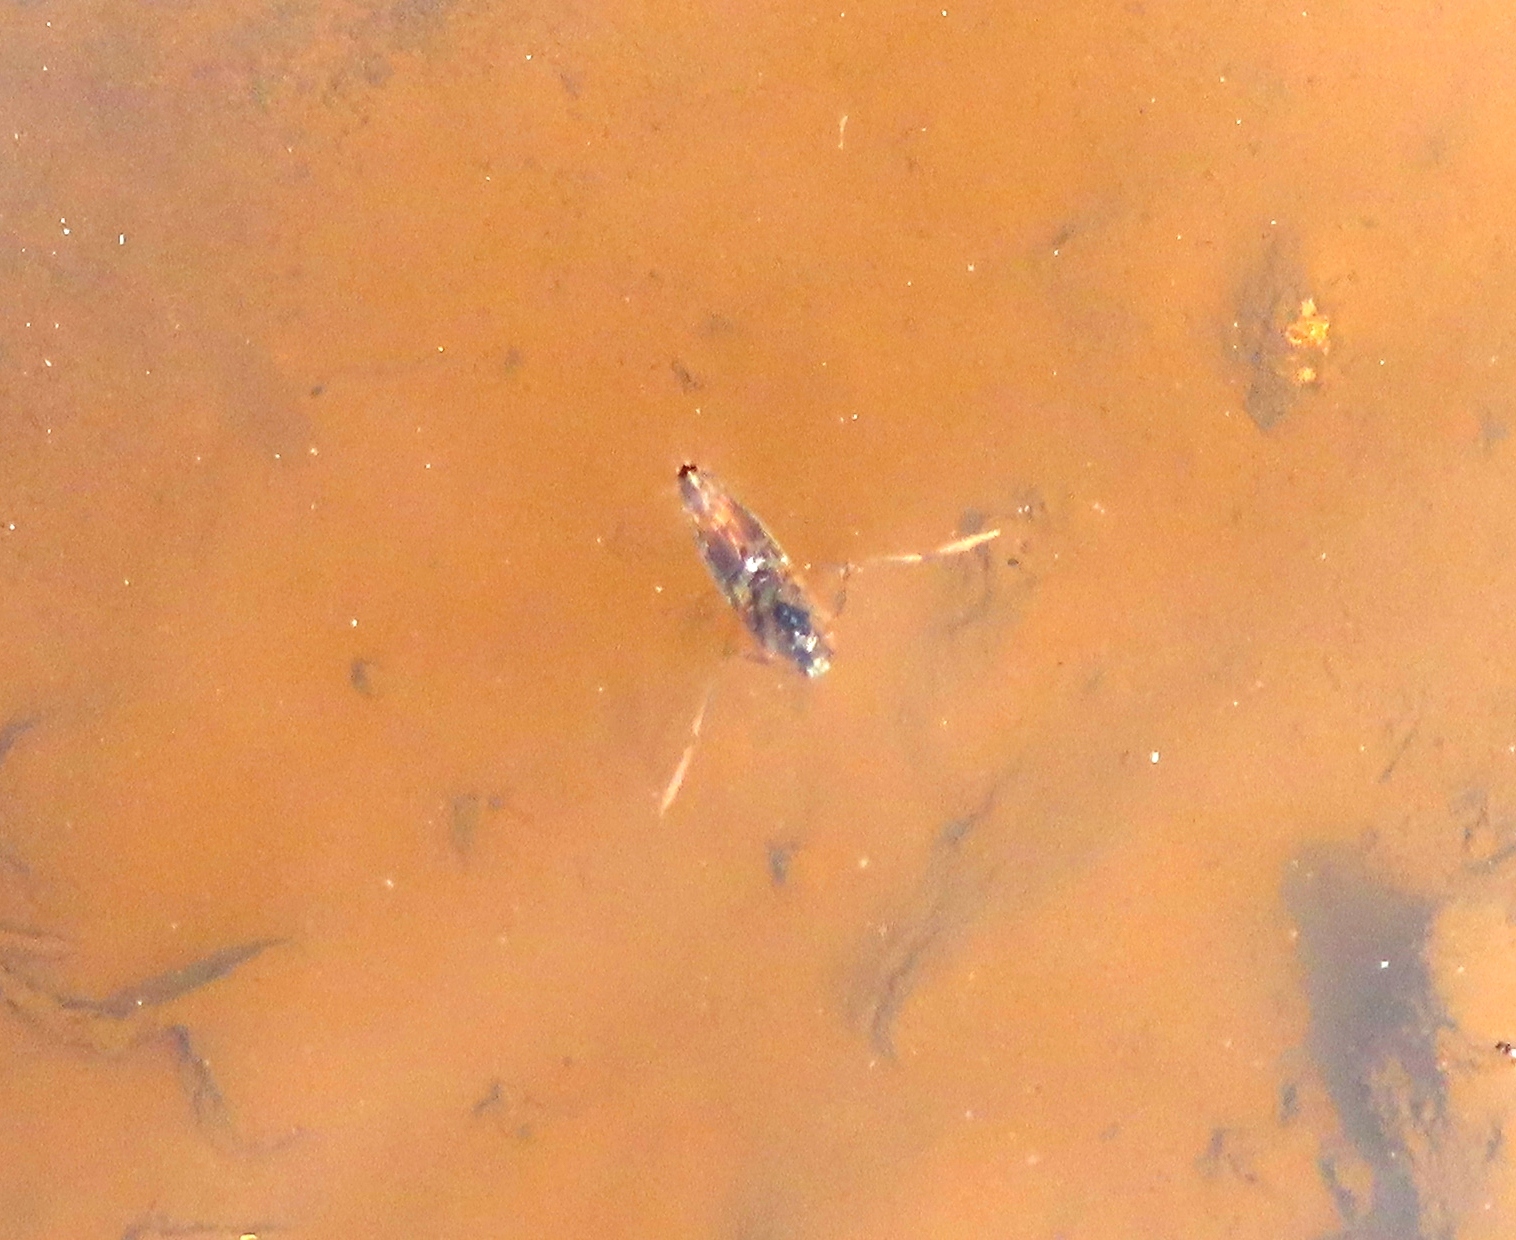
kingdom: Animalia
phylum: Arthropoda
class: Insecta
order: Hemiptera
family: Notonectidae
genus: Notonecta
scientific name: Notonecta
